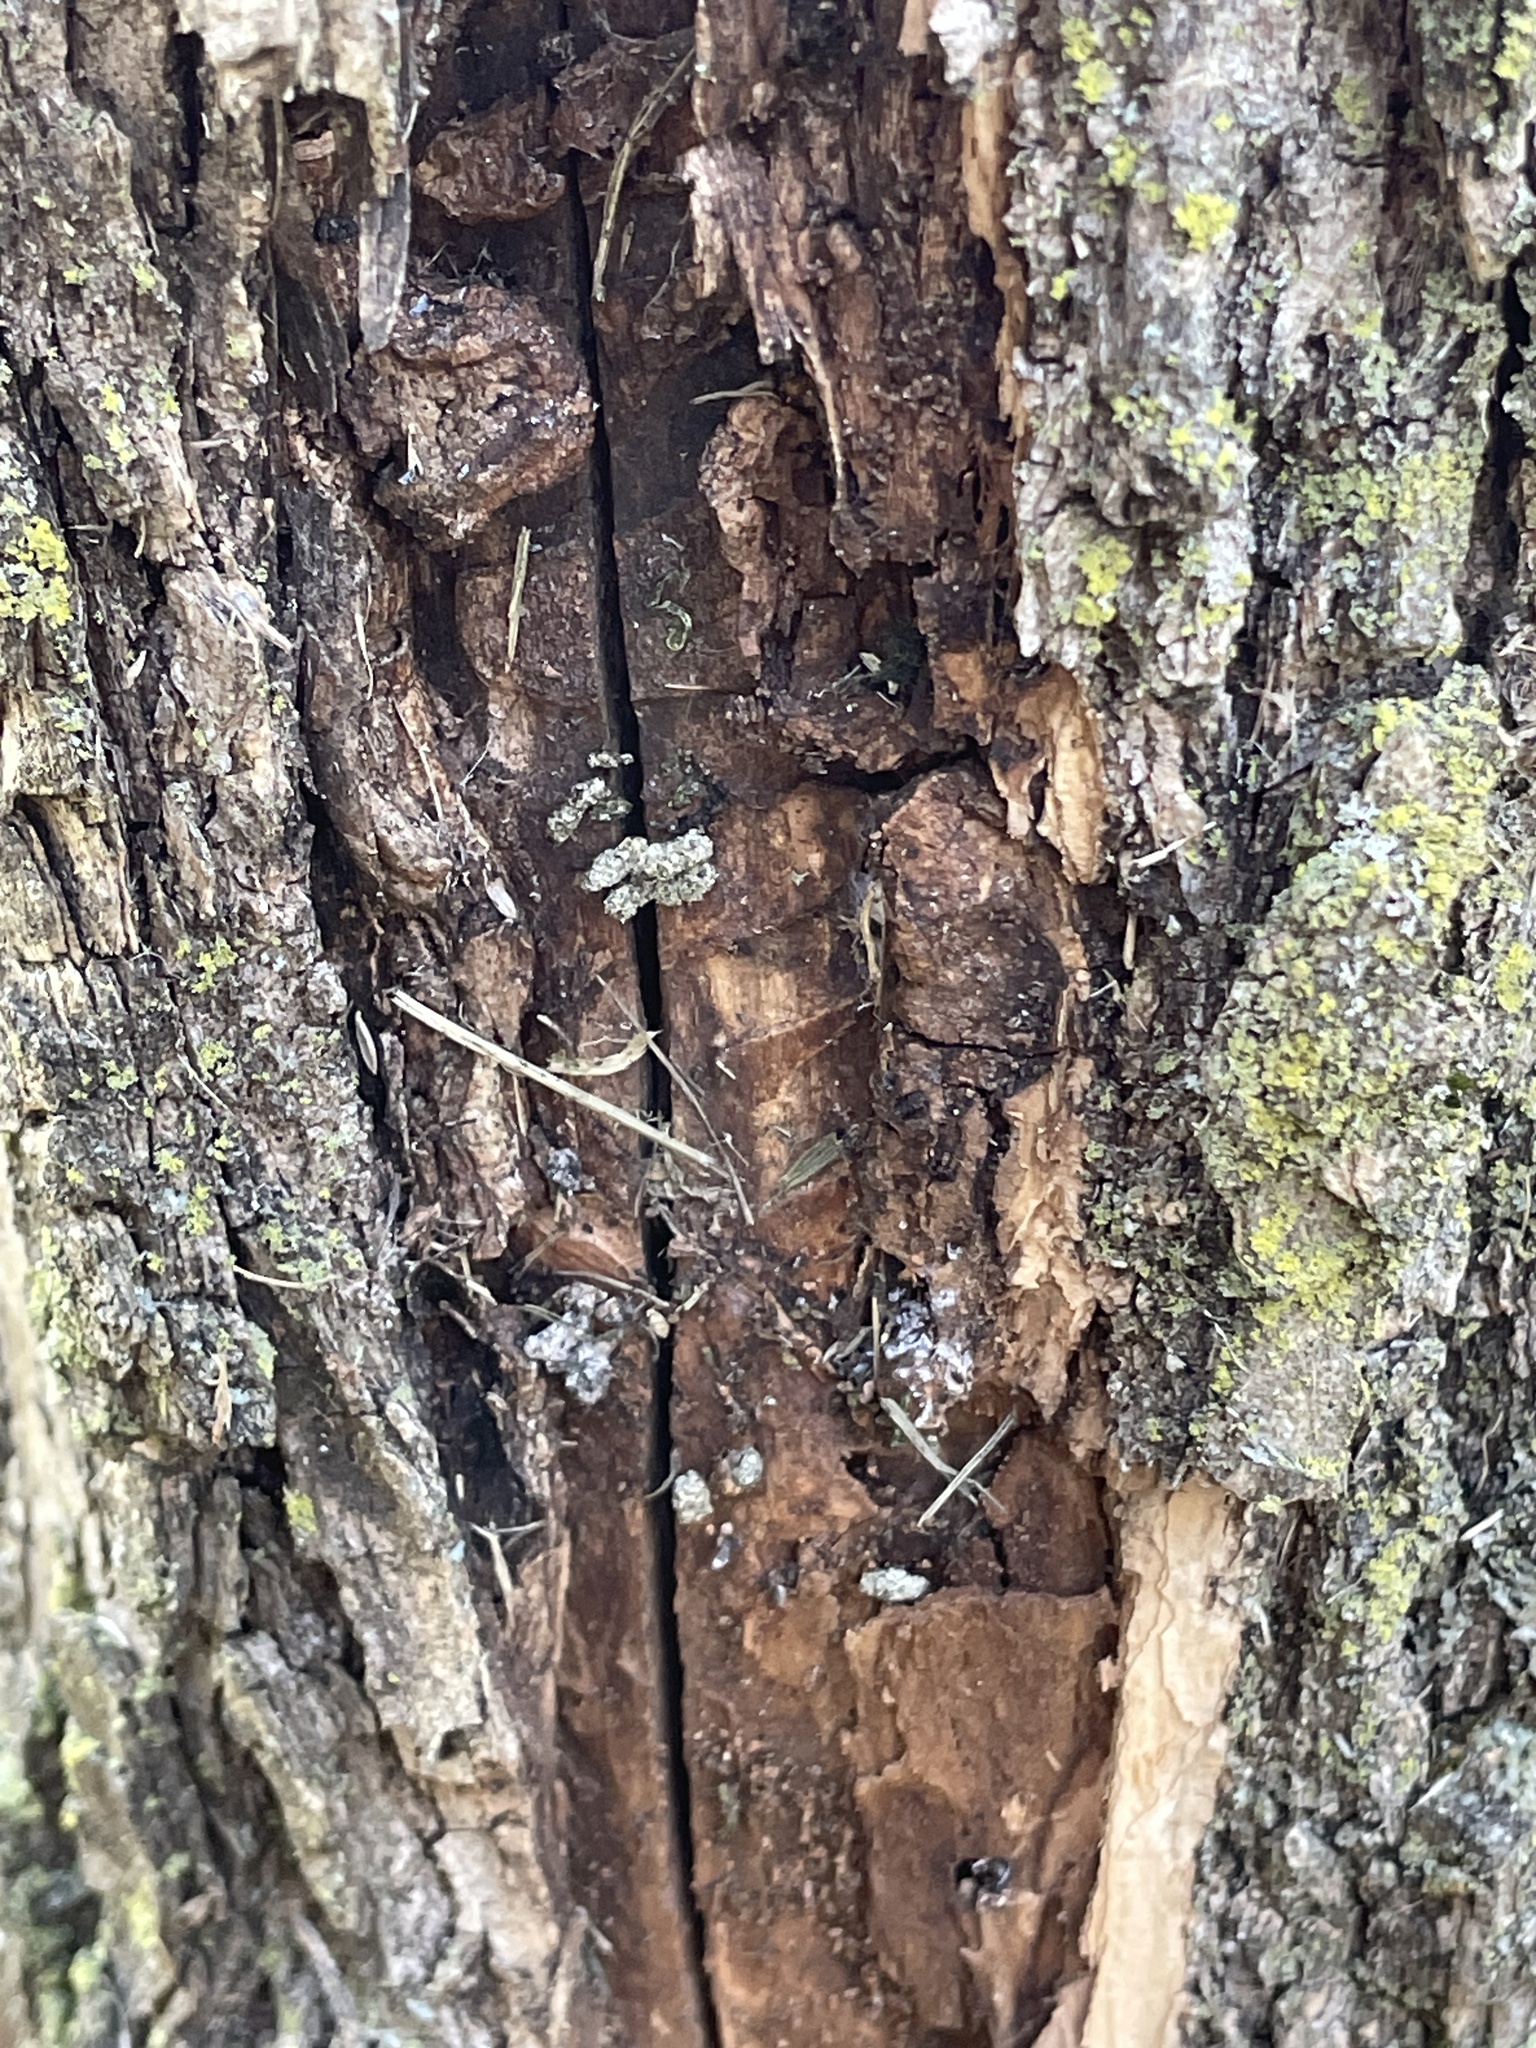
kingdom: Animalia
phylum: Arthropoda
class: Insecta
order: Coleoptera
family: Buprestidae
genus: Agrilus
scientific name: Agrilus planipennis
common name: Emerald ash borer
